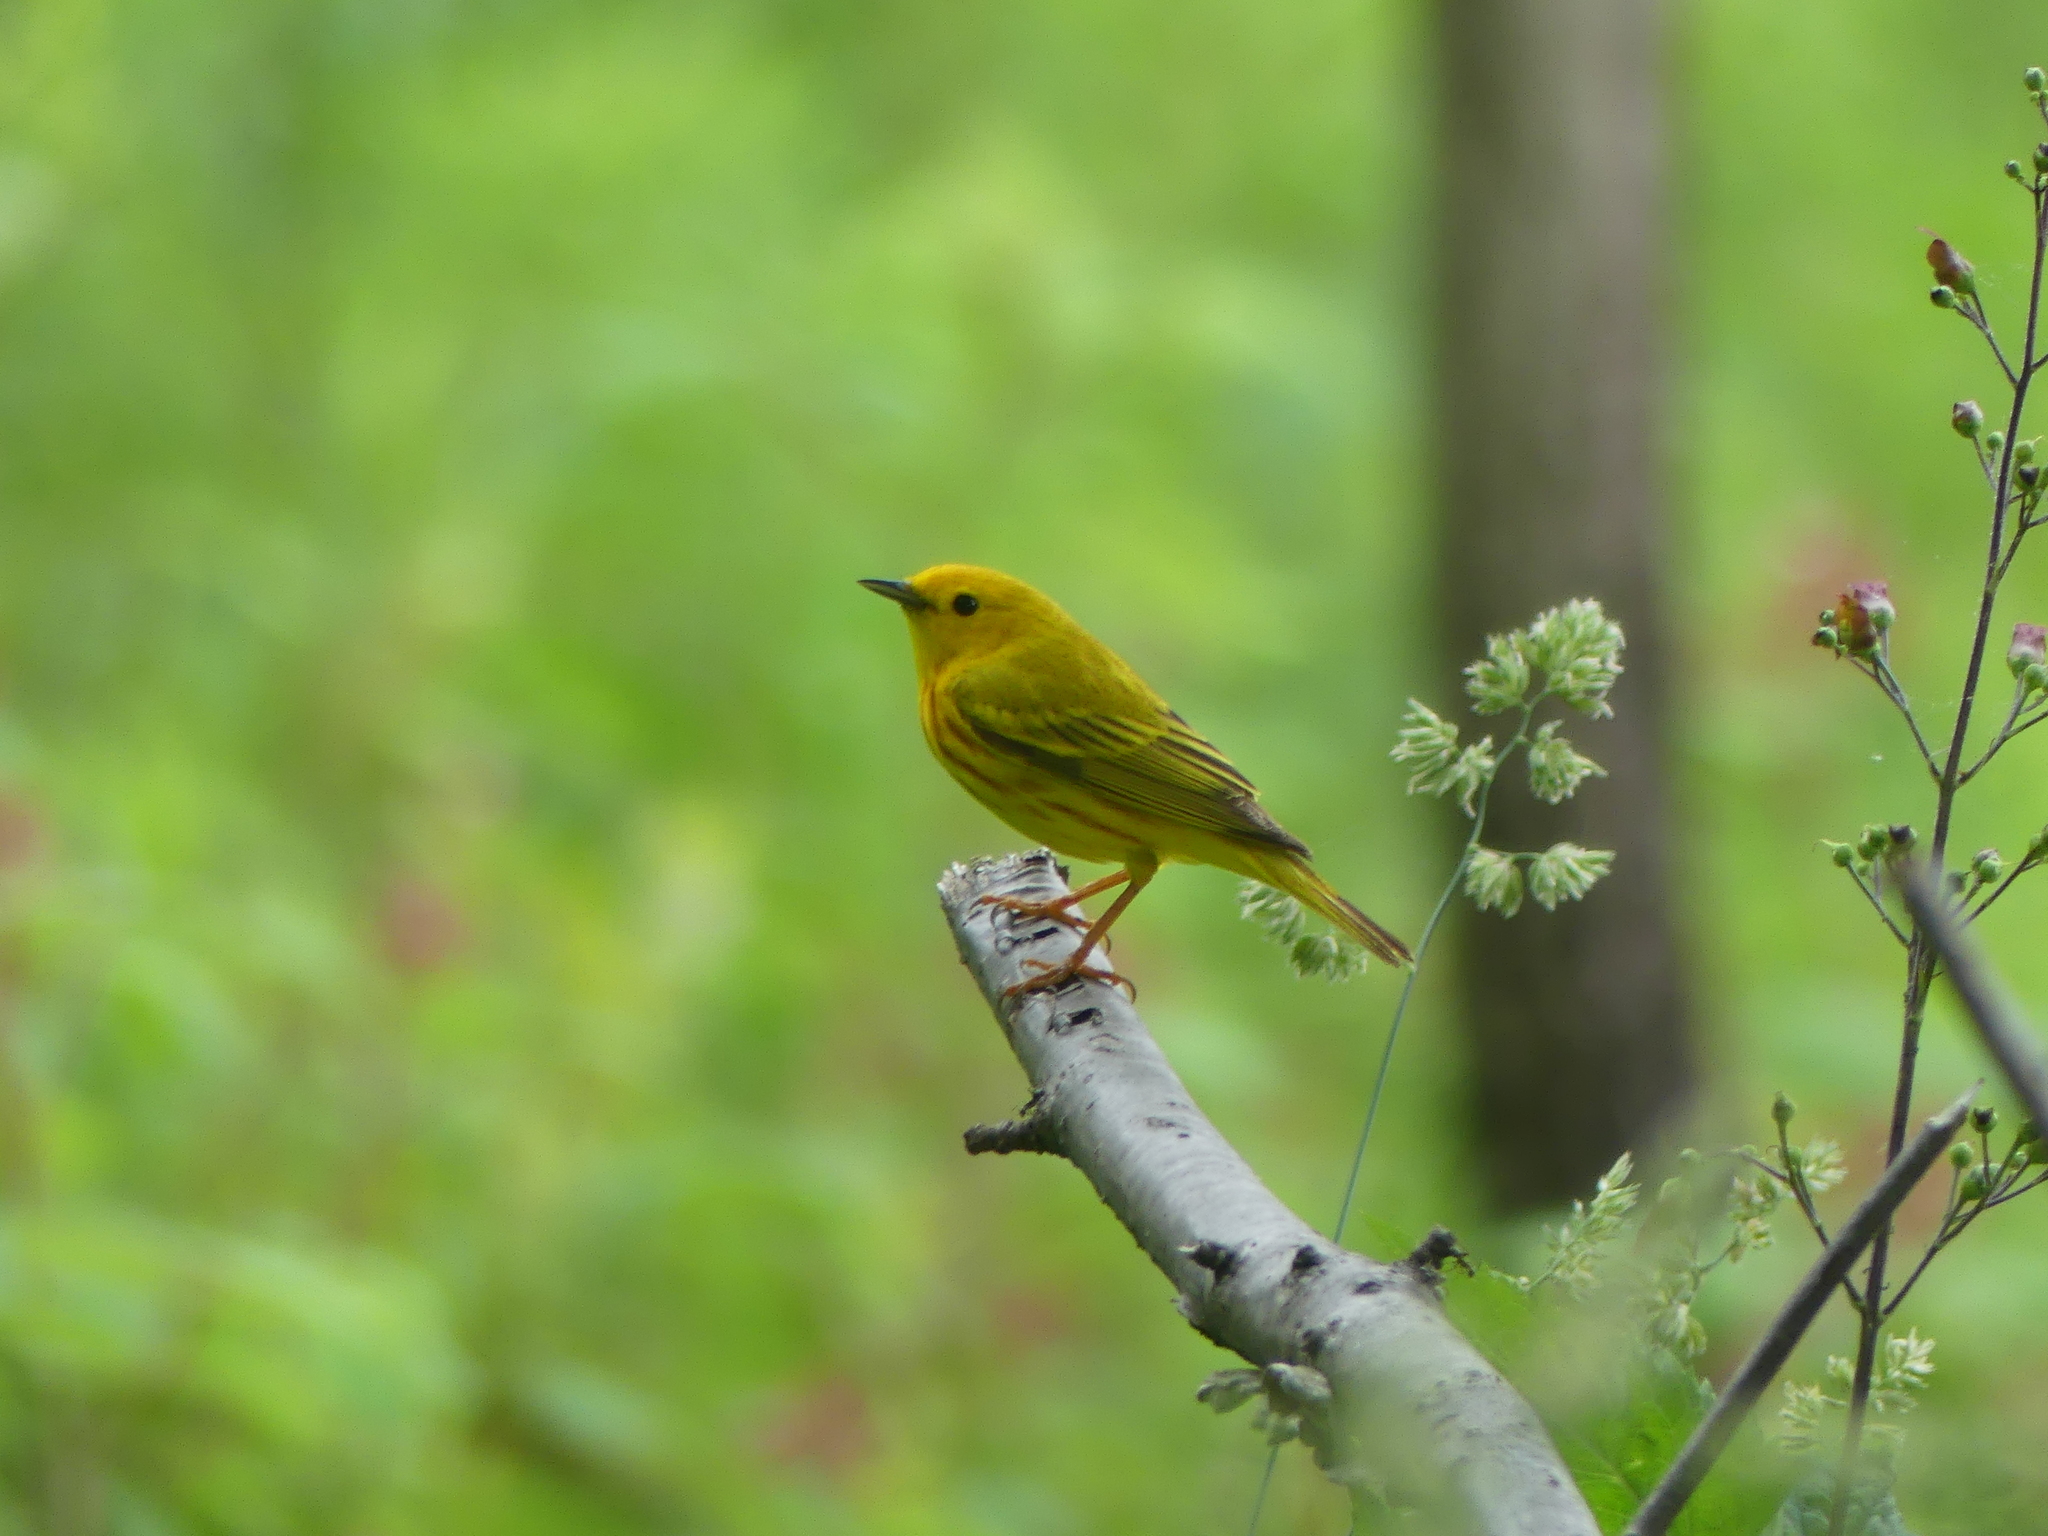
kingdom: Animalia
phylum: Chordata
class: Aves
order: Passeriformes
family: Parulidae
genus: Setophaga
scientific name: Setophaga petechia
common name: Yellow warbler
